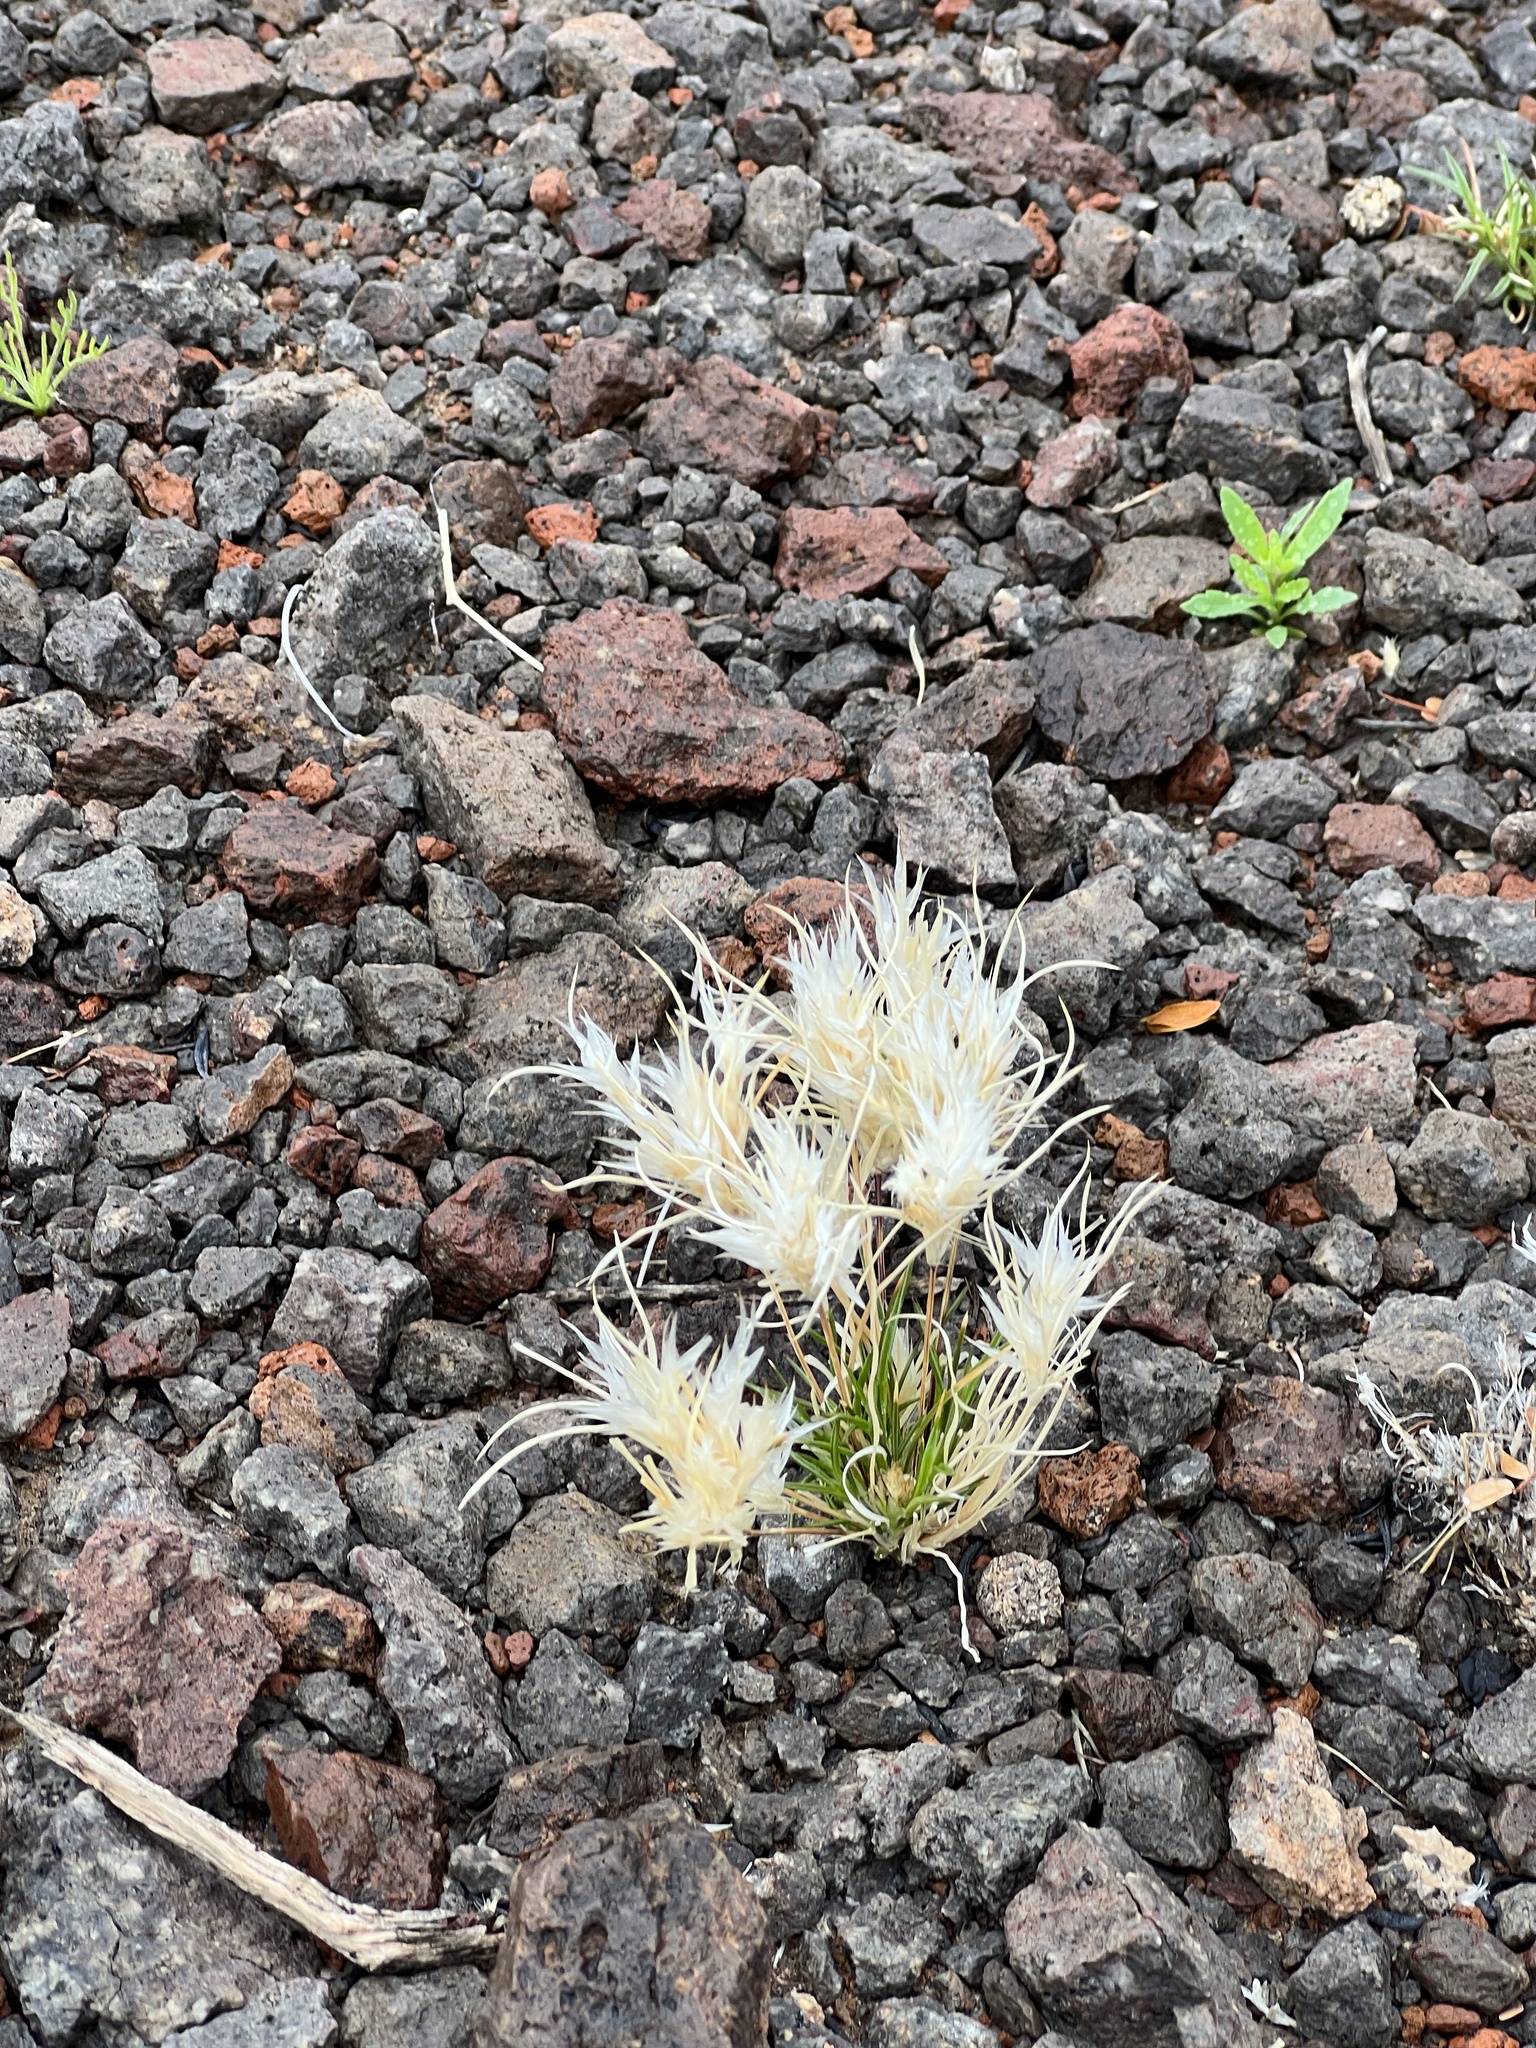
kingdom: Plantae
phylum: Tracheophyta
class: Liliopsida
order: Poales
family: Poaceae
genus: Dasyochloa
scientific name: Dasyochloa pulchella
